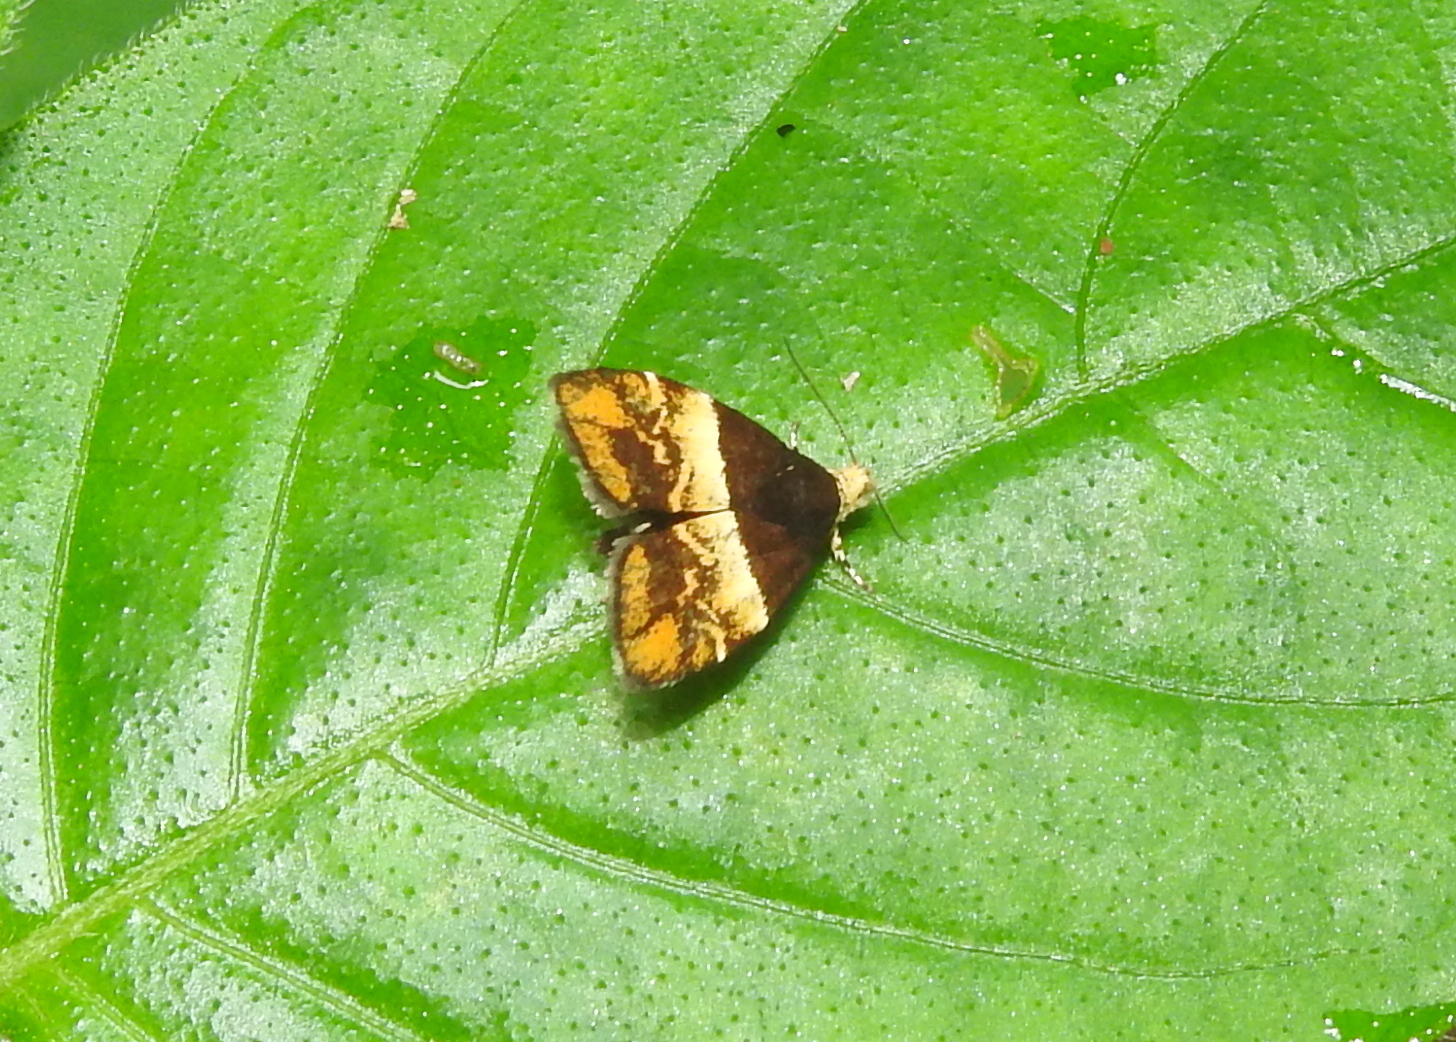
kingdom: Animalia
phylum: Arthropoda
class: Insecta
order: Lepidoptera
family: Choreutidae
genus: Choreutis
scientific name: Choreutis argyroxantha
